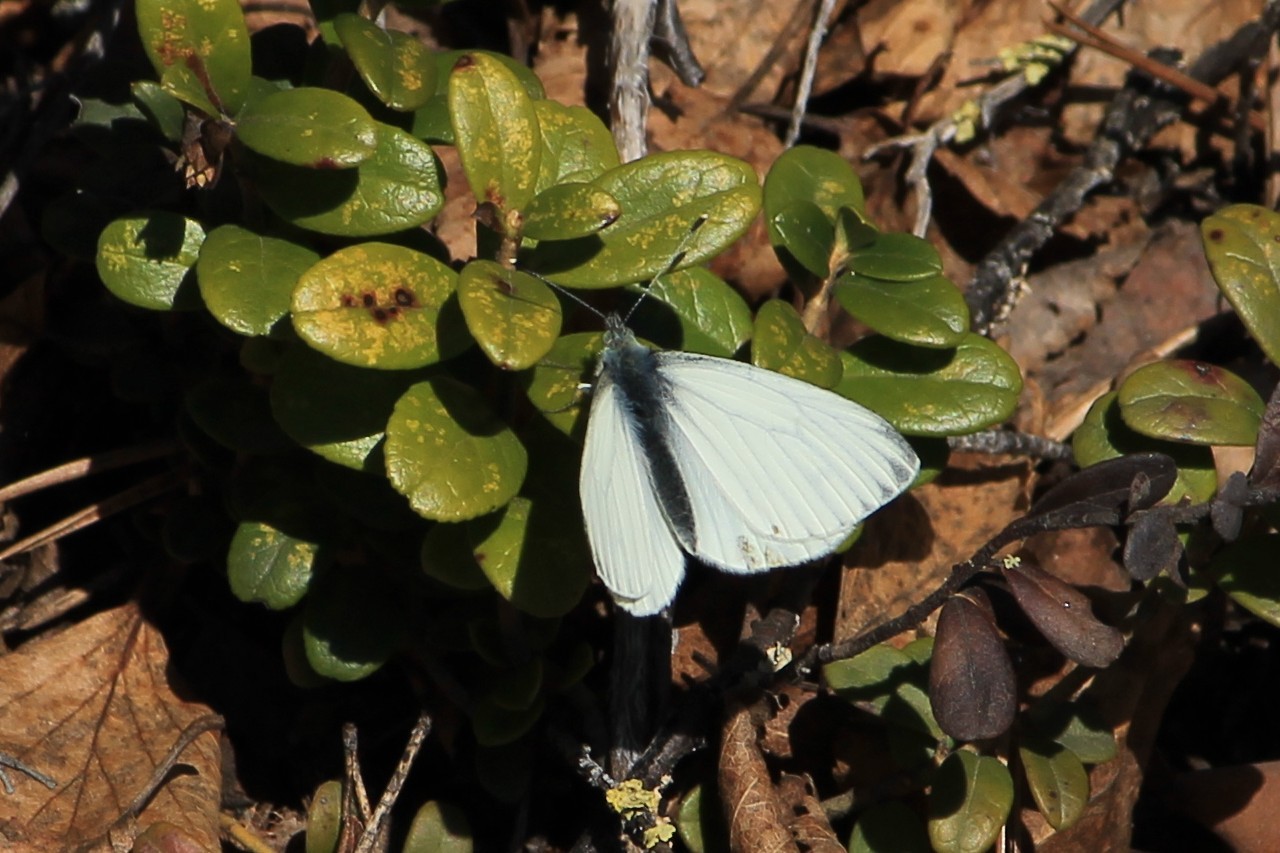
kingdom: Animalia
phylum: Arthropoda
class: Insecta
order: Lepidoptera
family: Pieridae
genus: Pieris
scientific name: Pieris napi
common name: Green-veined white
